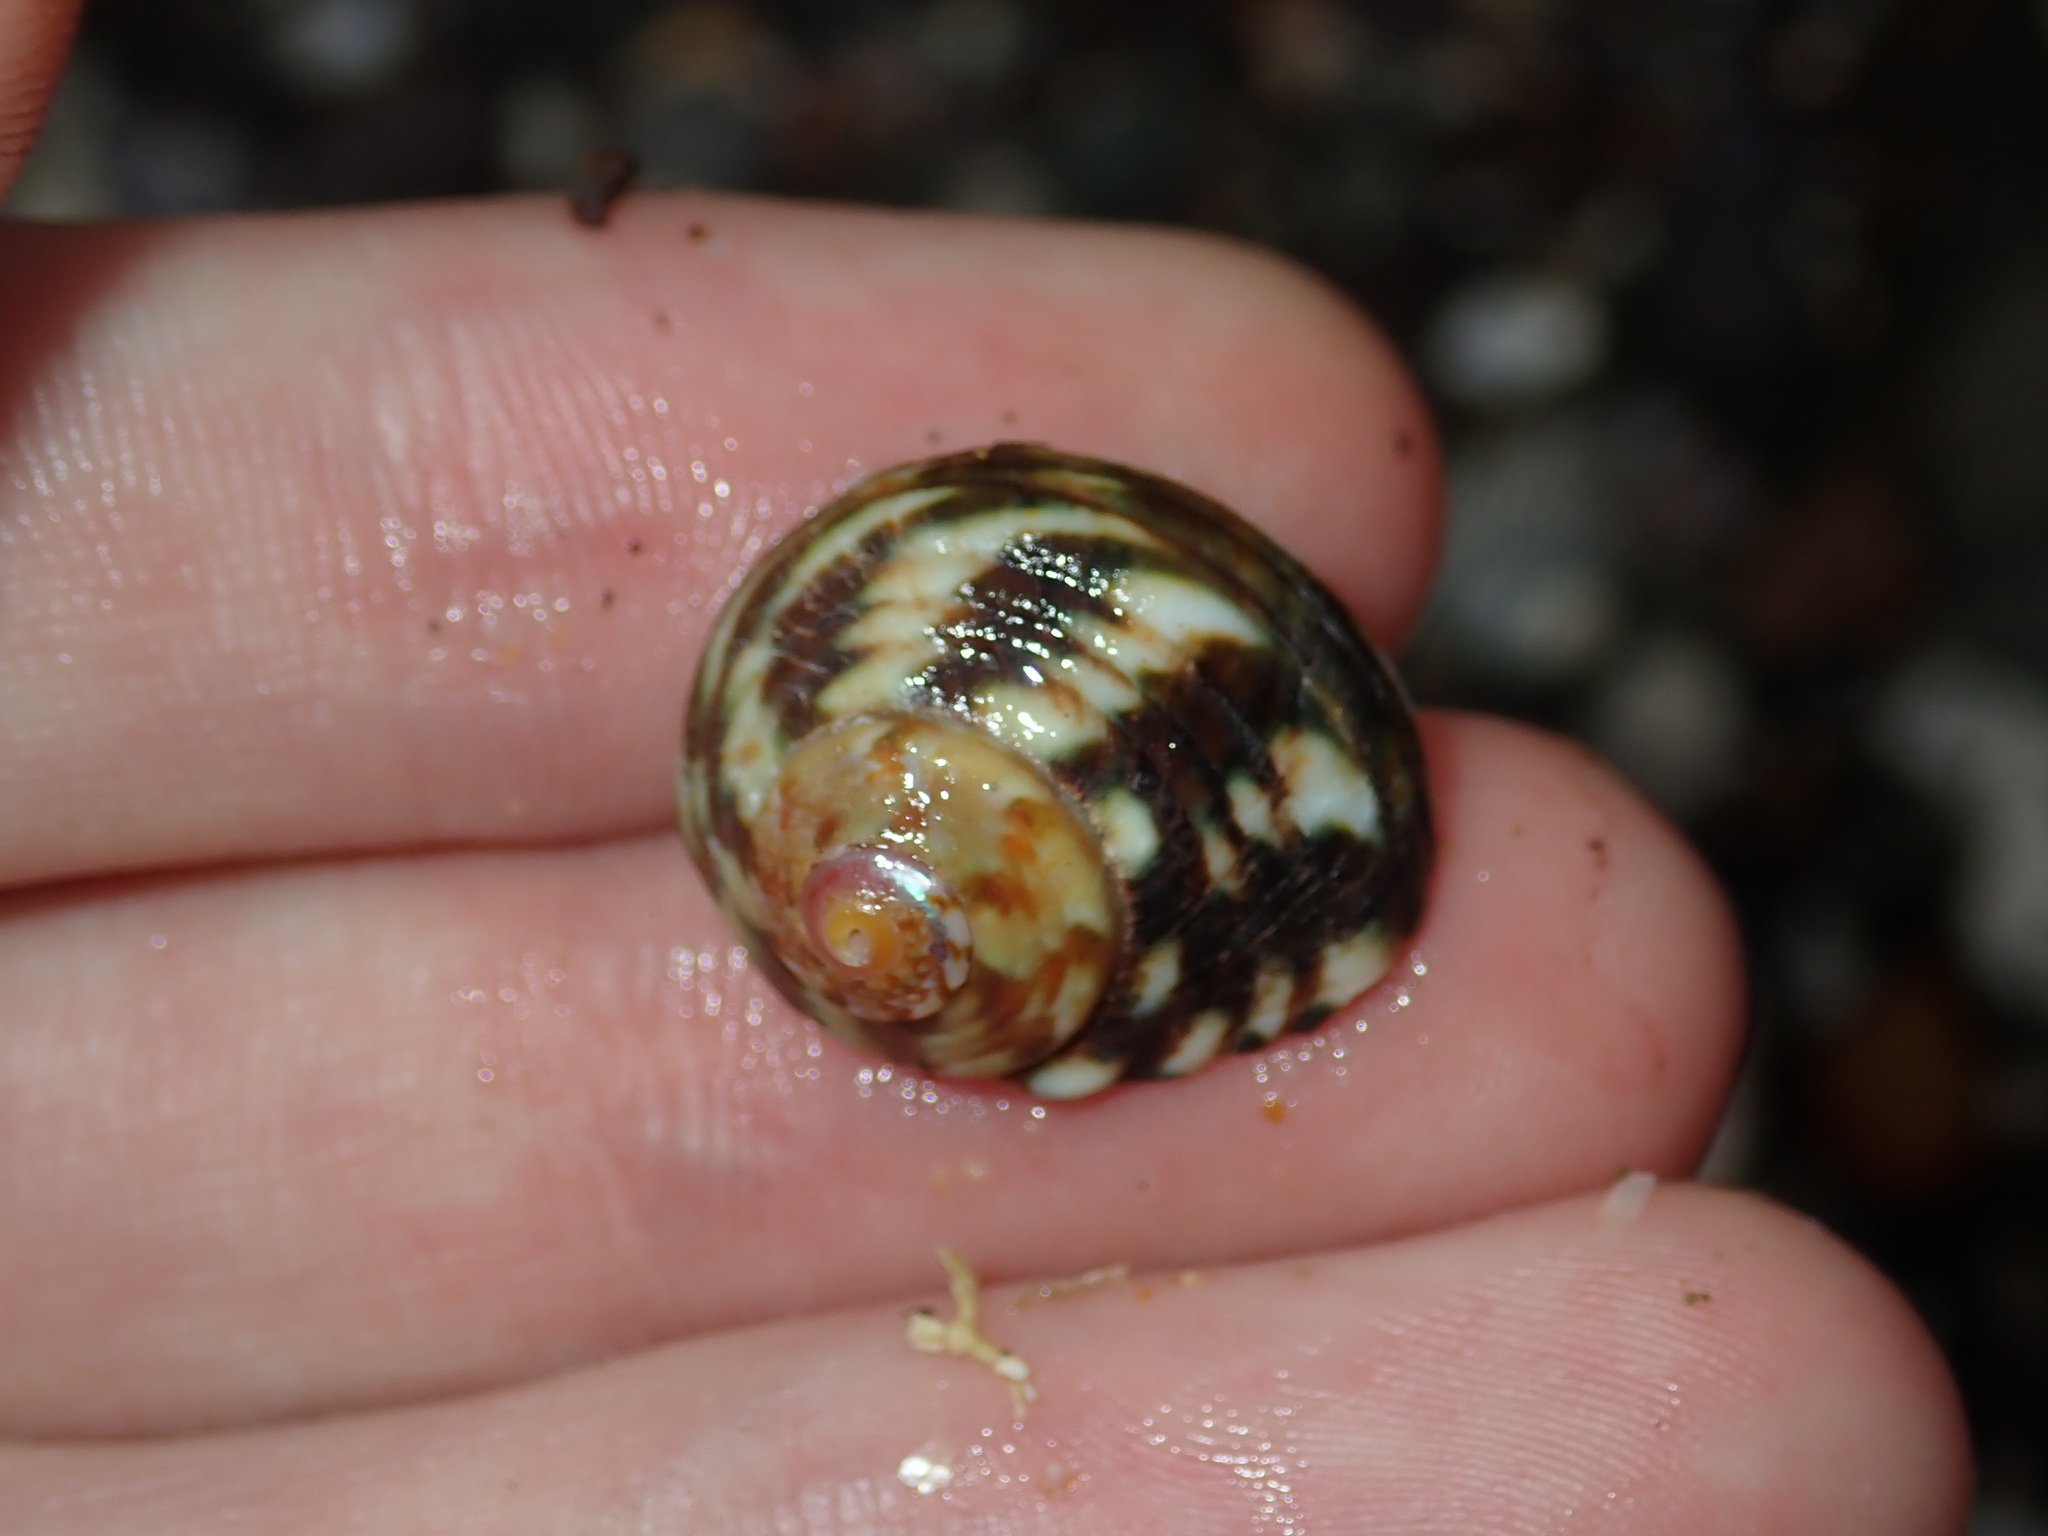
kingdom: Animalia
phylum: Mollusca
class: Gastropoda
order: Trochida
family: Turbinidae
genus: Lunella
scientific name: Lunella undulata
